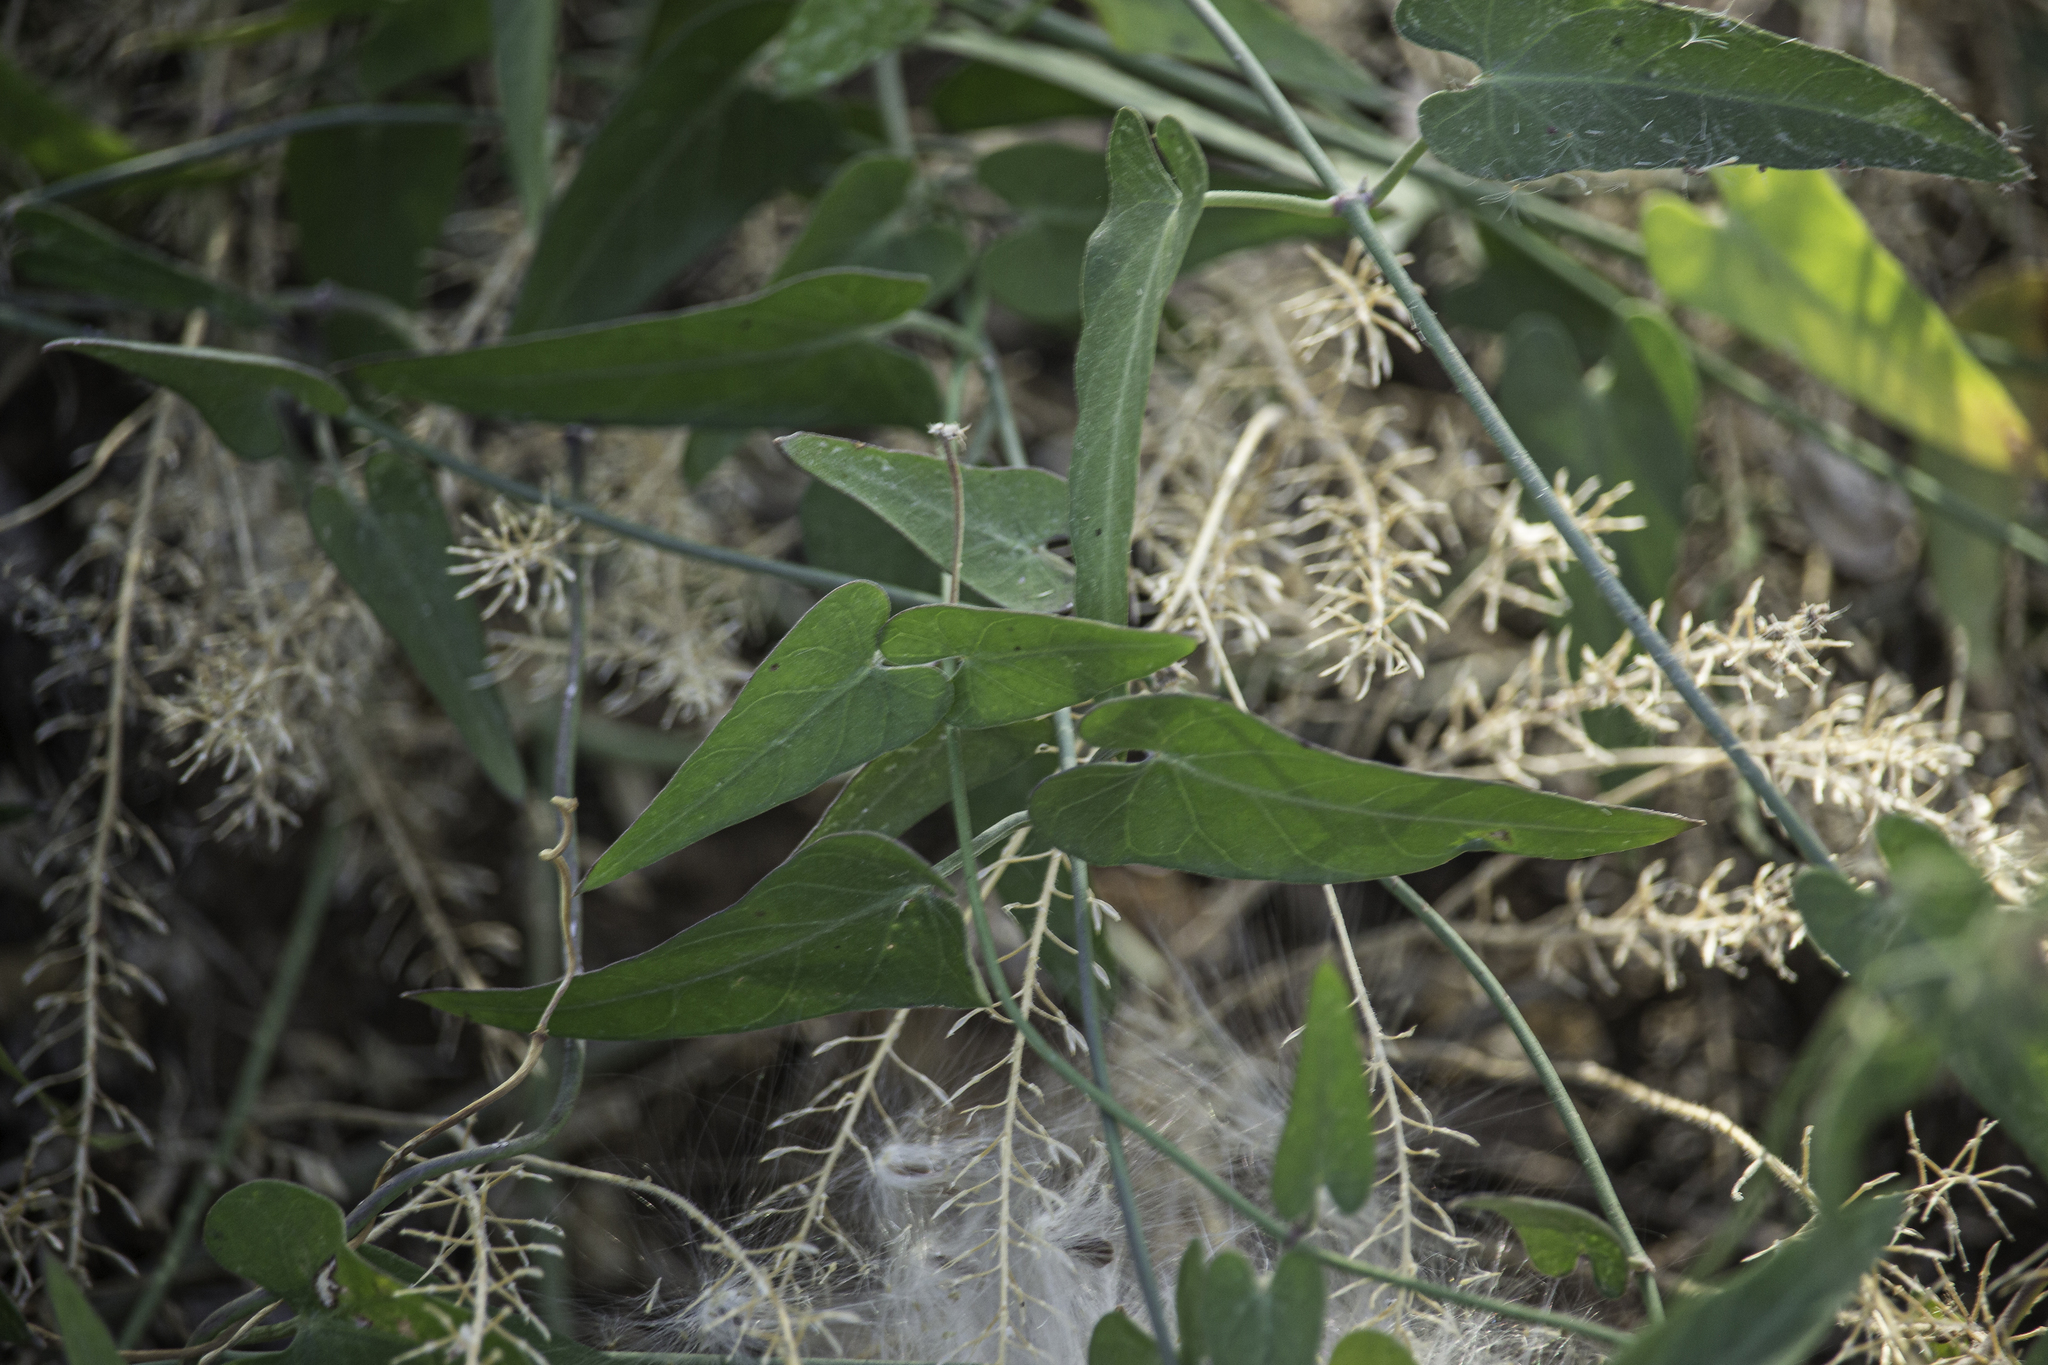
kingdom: Plantae
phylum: Tracheophyta
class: Magnoliopsida
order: Gentianales
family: Apocynaceae
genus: Funastrum
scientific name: Funastrum cynanchoides
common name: Climbing-milkweed
